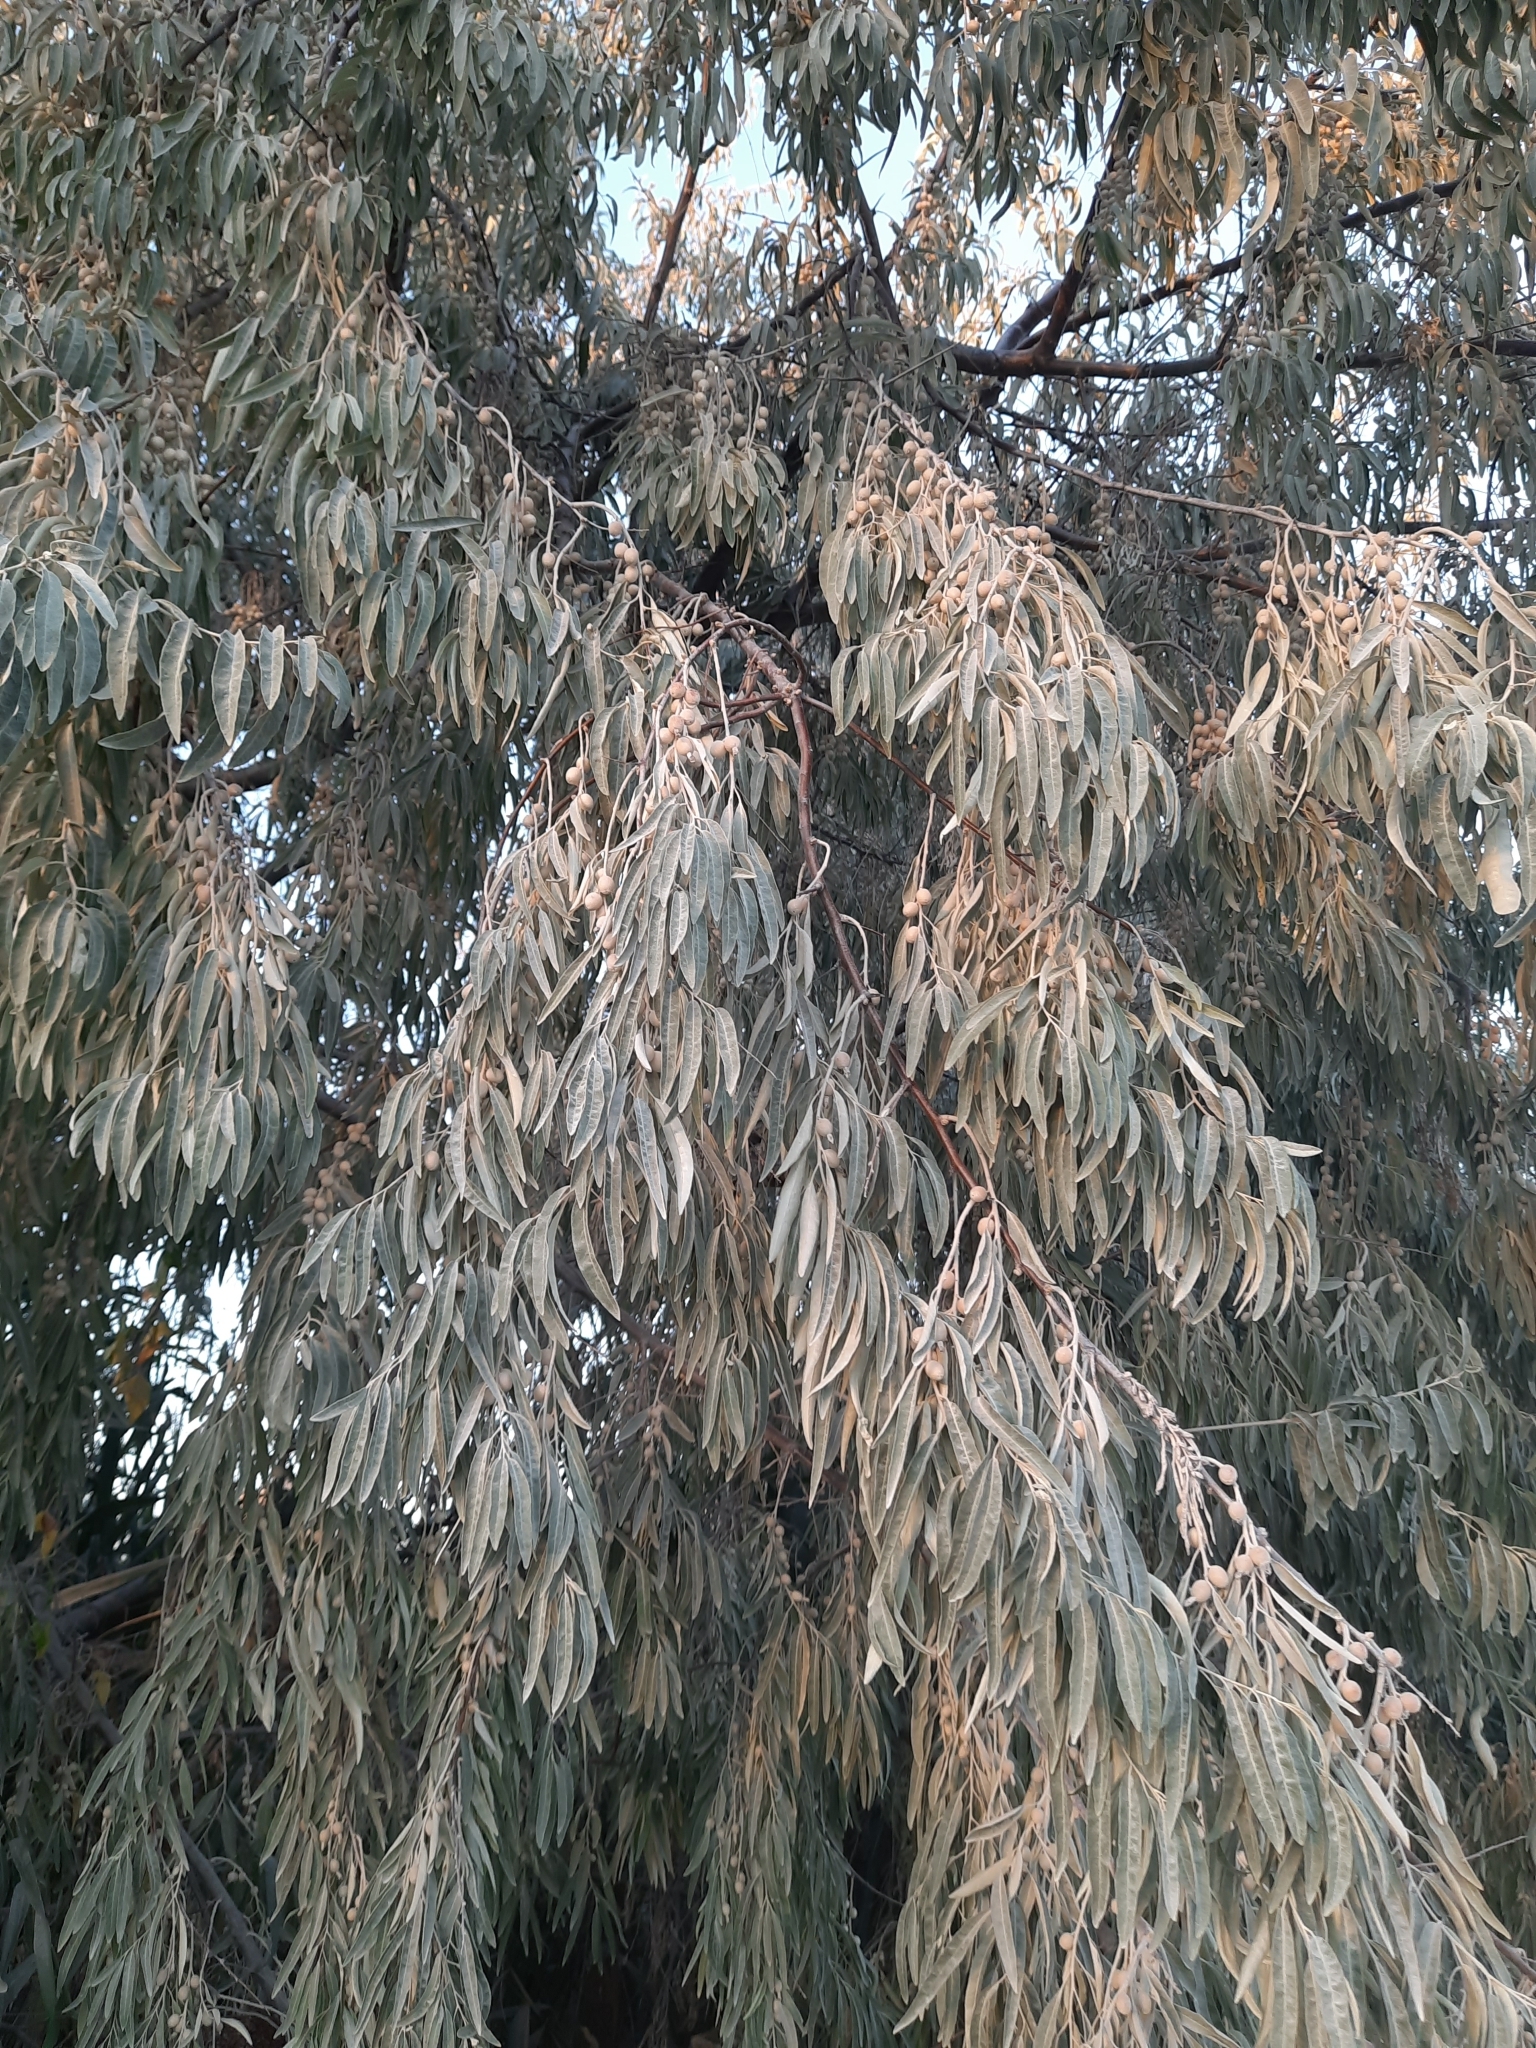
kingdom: Plantae
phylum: Tracheophyta
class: Magnoliopsida
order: Rosales
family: Elaeagnaceae
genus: Elaeagnus
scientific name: Elaeagnus angustifolia
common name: Russian olive
